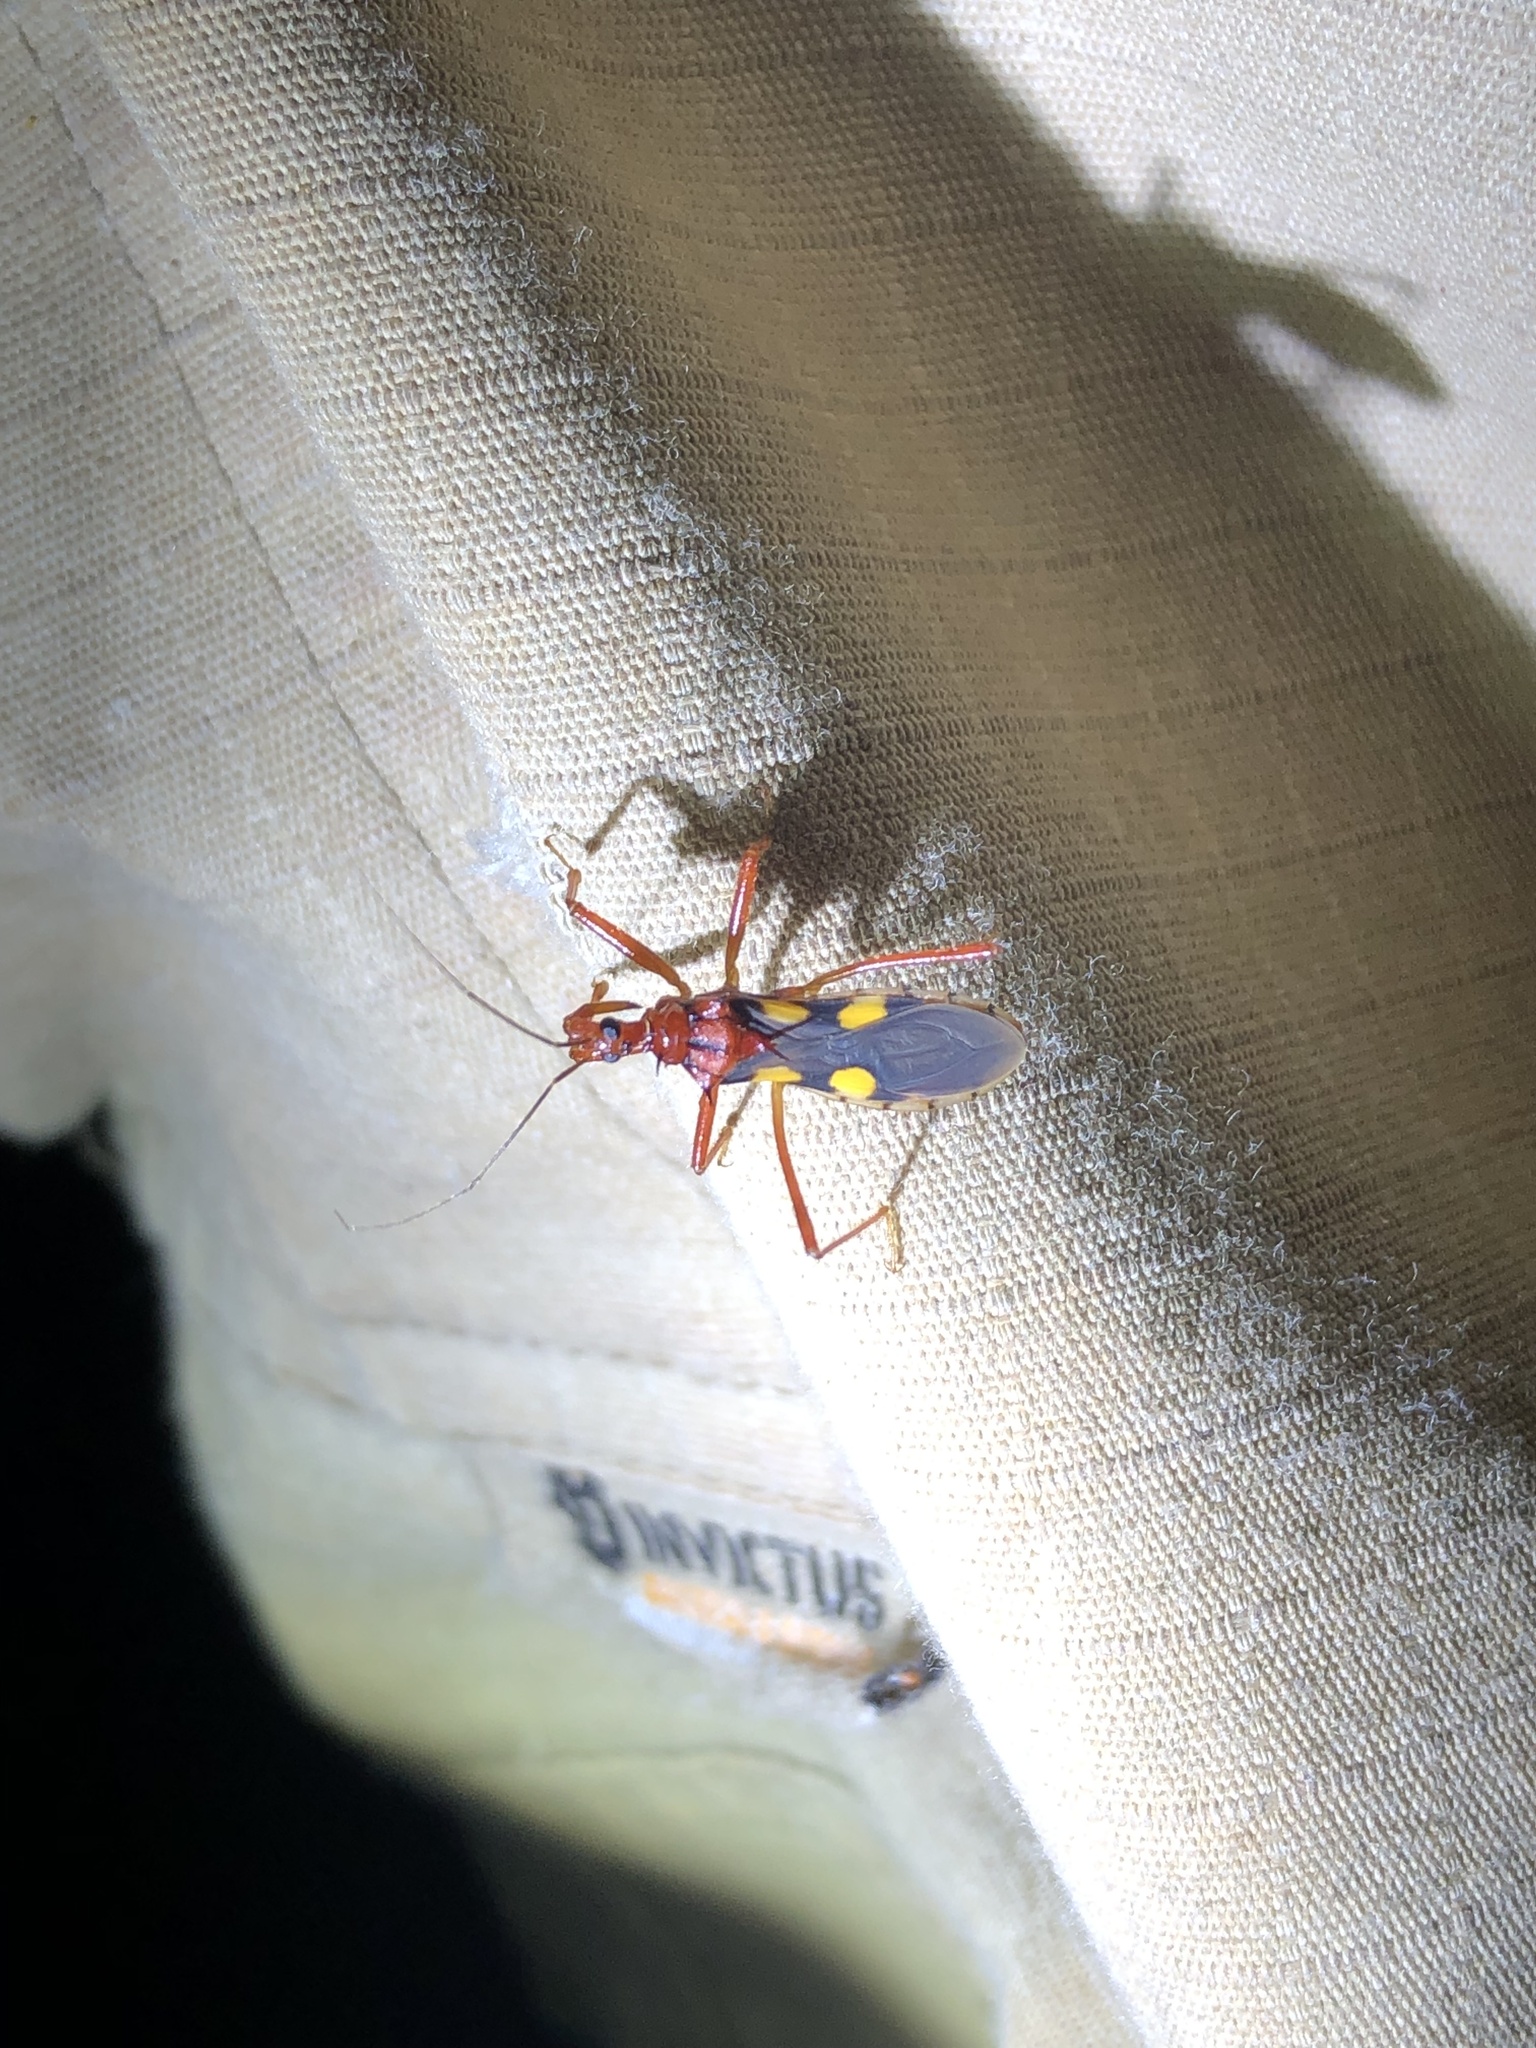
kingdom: Animalia
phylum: Arthropoda
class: Insecta
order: Hemiptera
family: Reduviidae
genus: Zelurus
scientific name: Zelurus nigrolineatus
